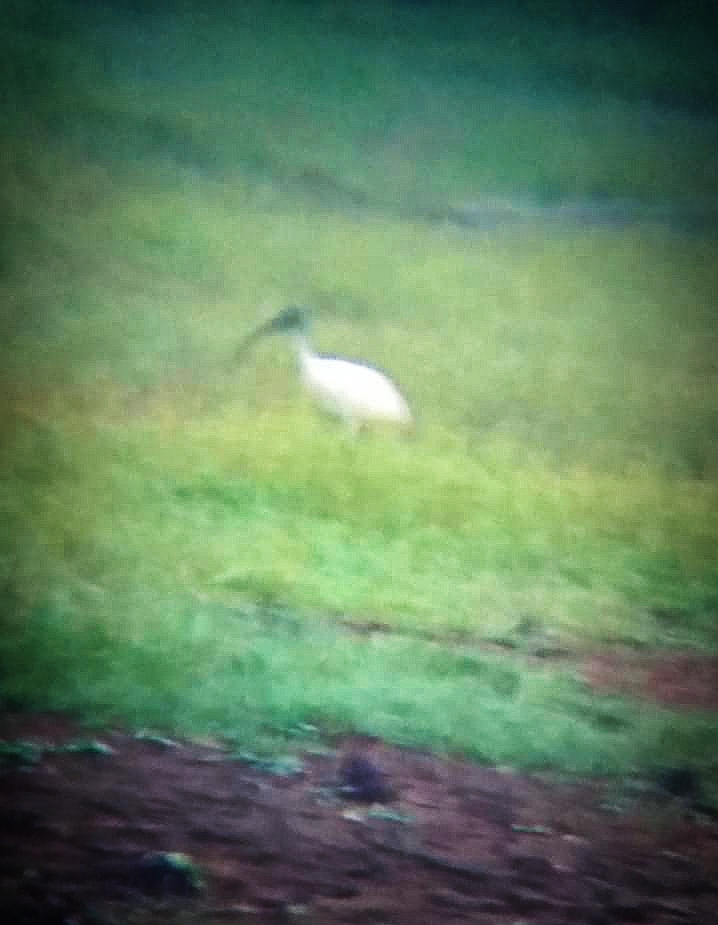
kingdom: Animalia
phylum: Chordata
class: Aves
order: Pelecaniformes
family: Threskiornithidae
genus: Threskiornis
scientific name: Threskiornis melanocephalus
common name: Black-headed ibis
